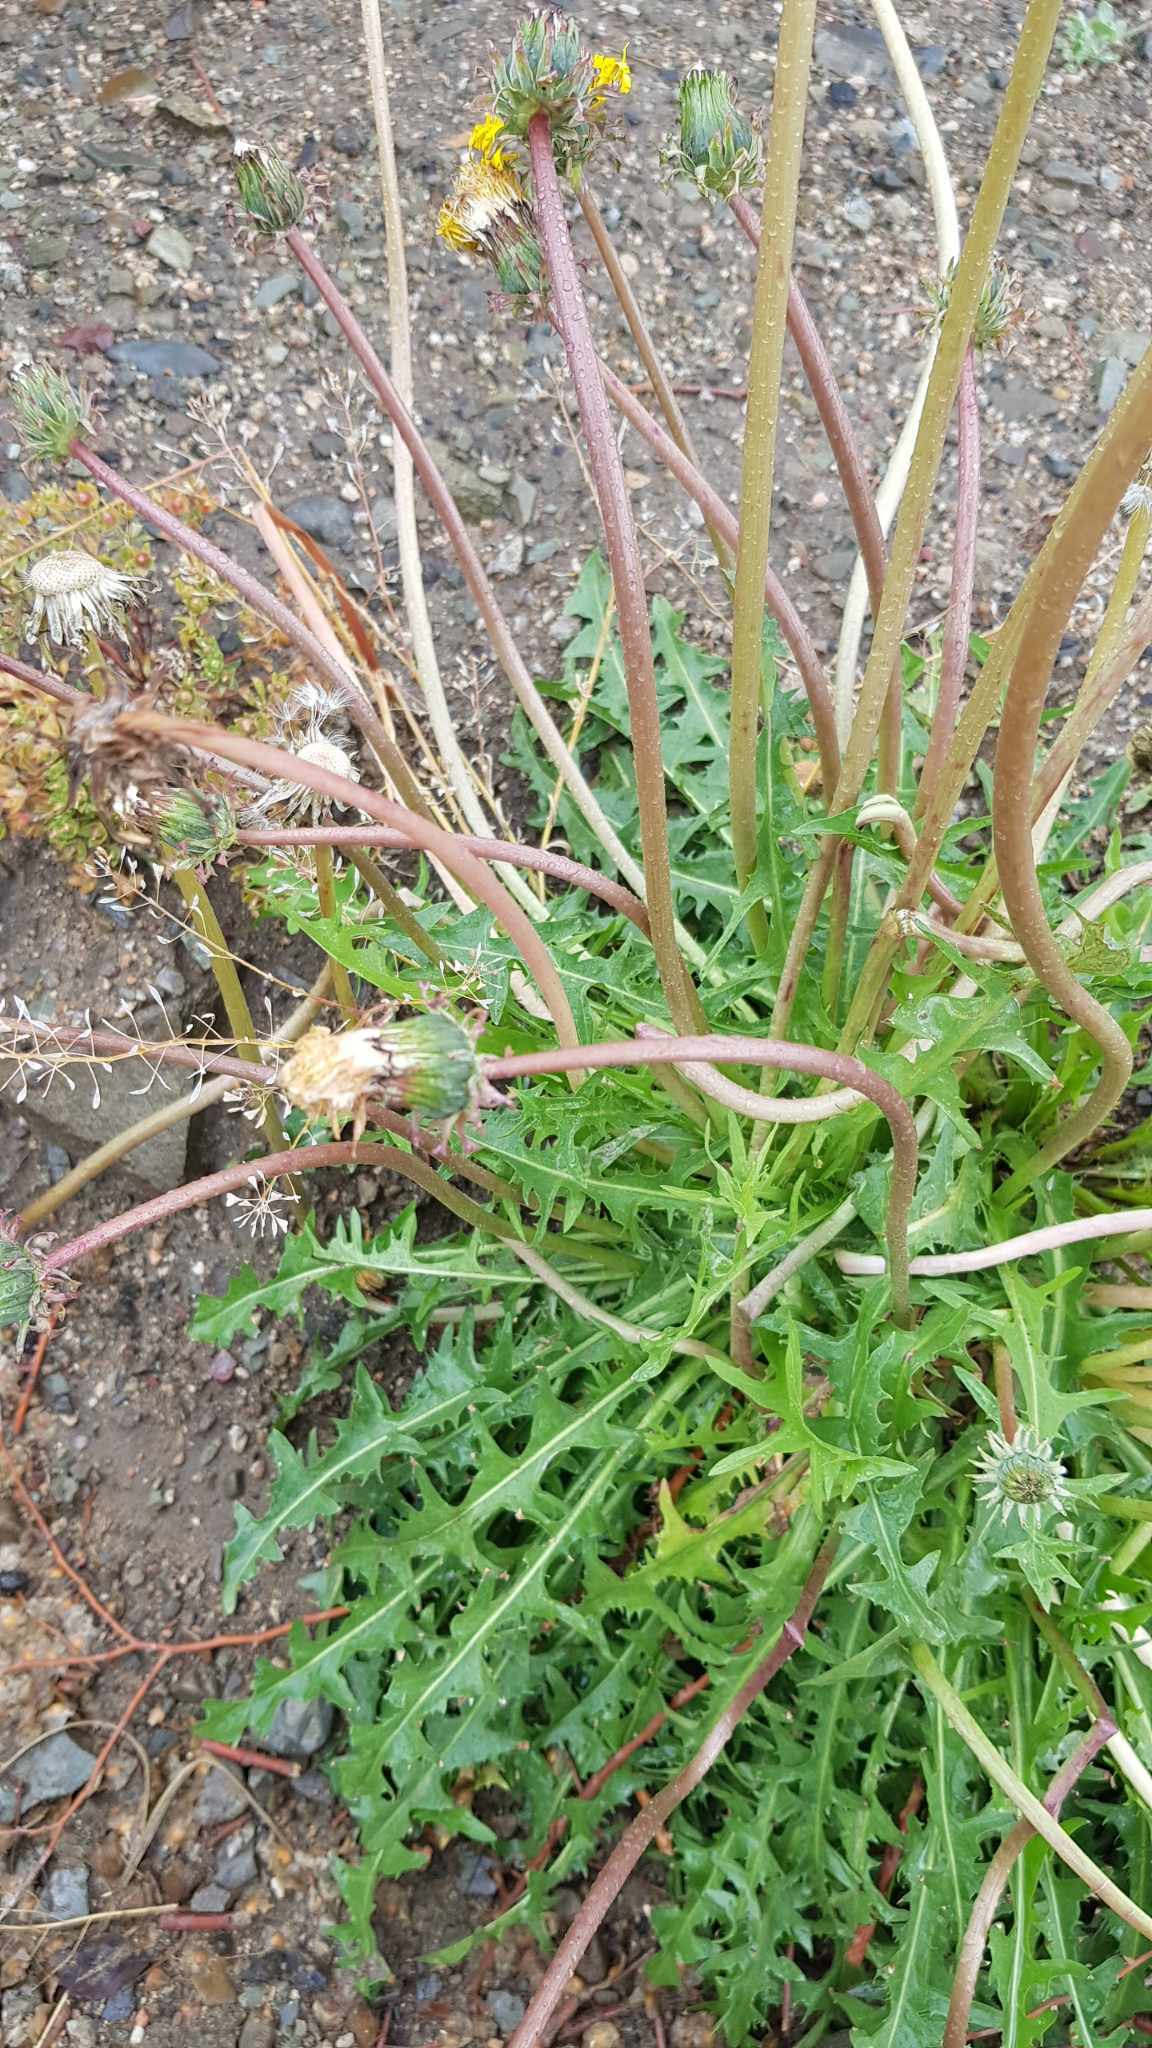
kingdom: Plantae
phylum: Tracheophyta
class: Magnoliopsida
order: Asterales
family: Asteraceae
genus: Taraxacum
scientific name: Taraxacum ceratophorum
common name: Horn-bearing dandelion
